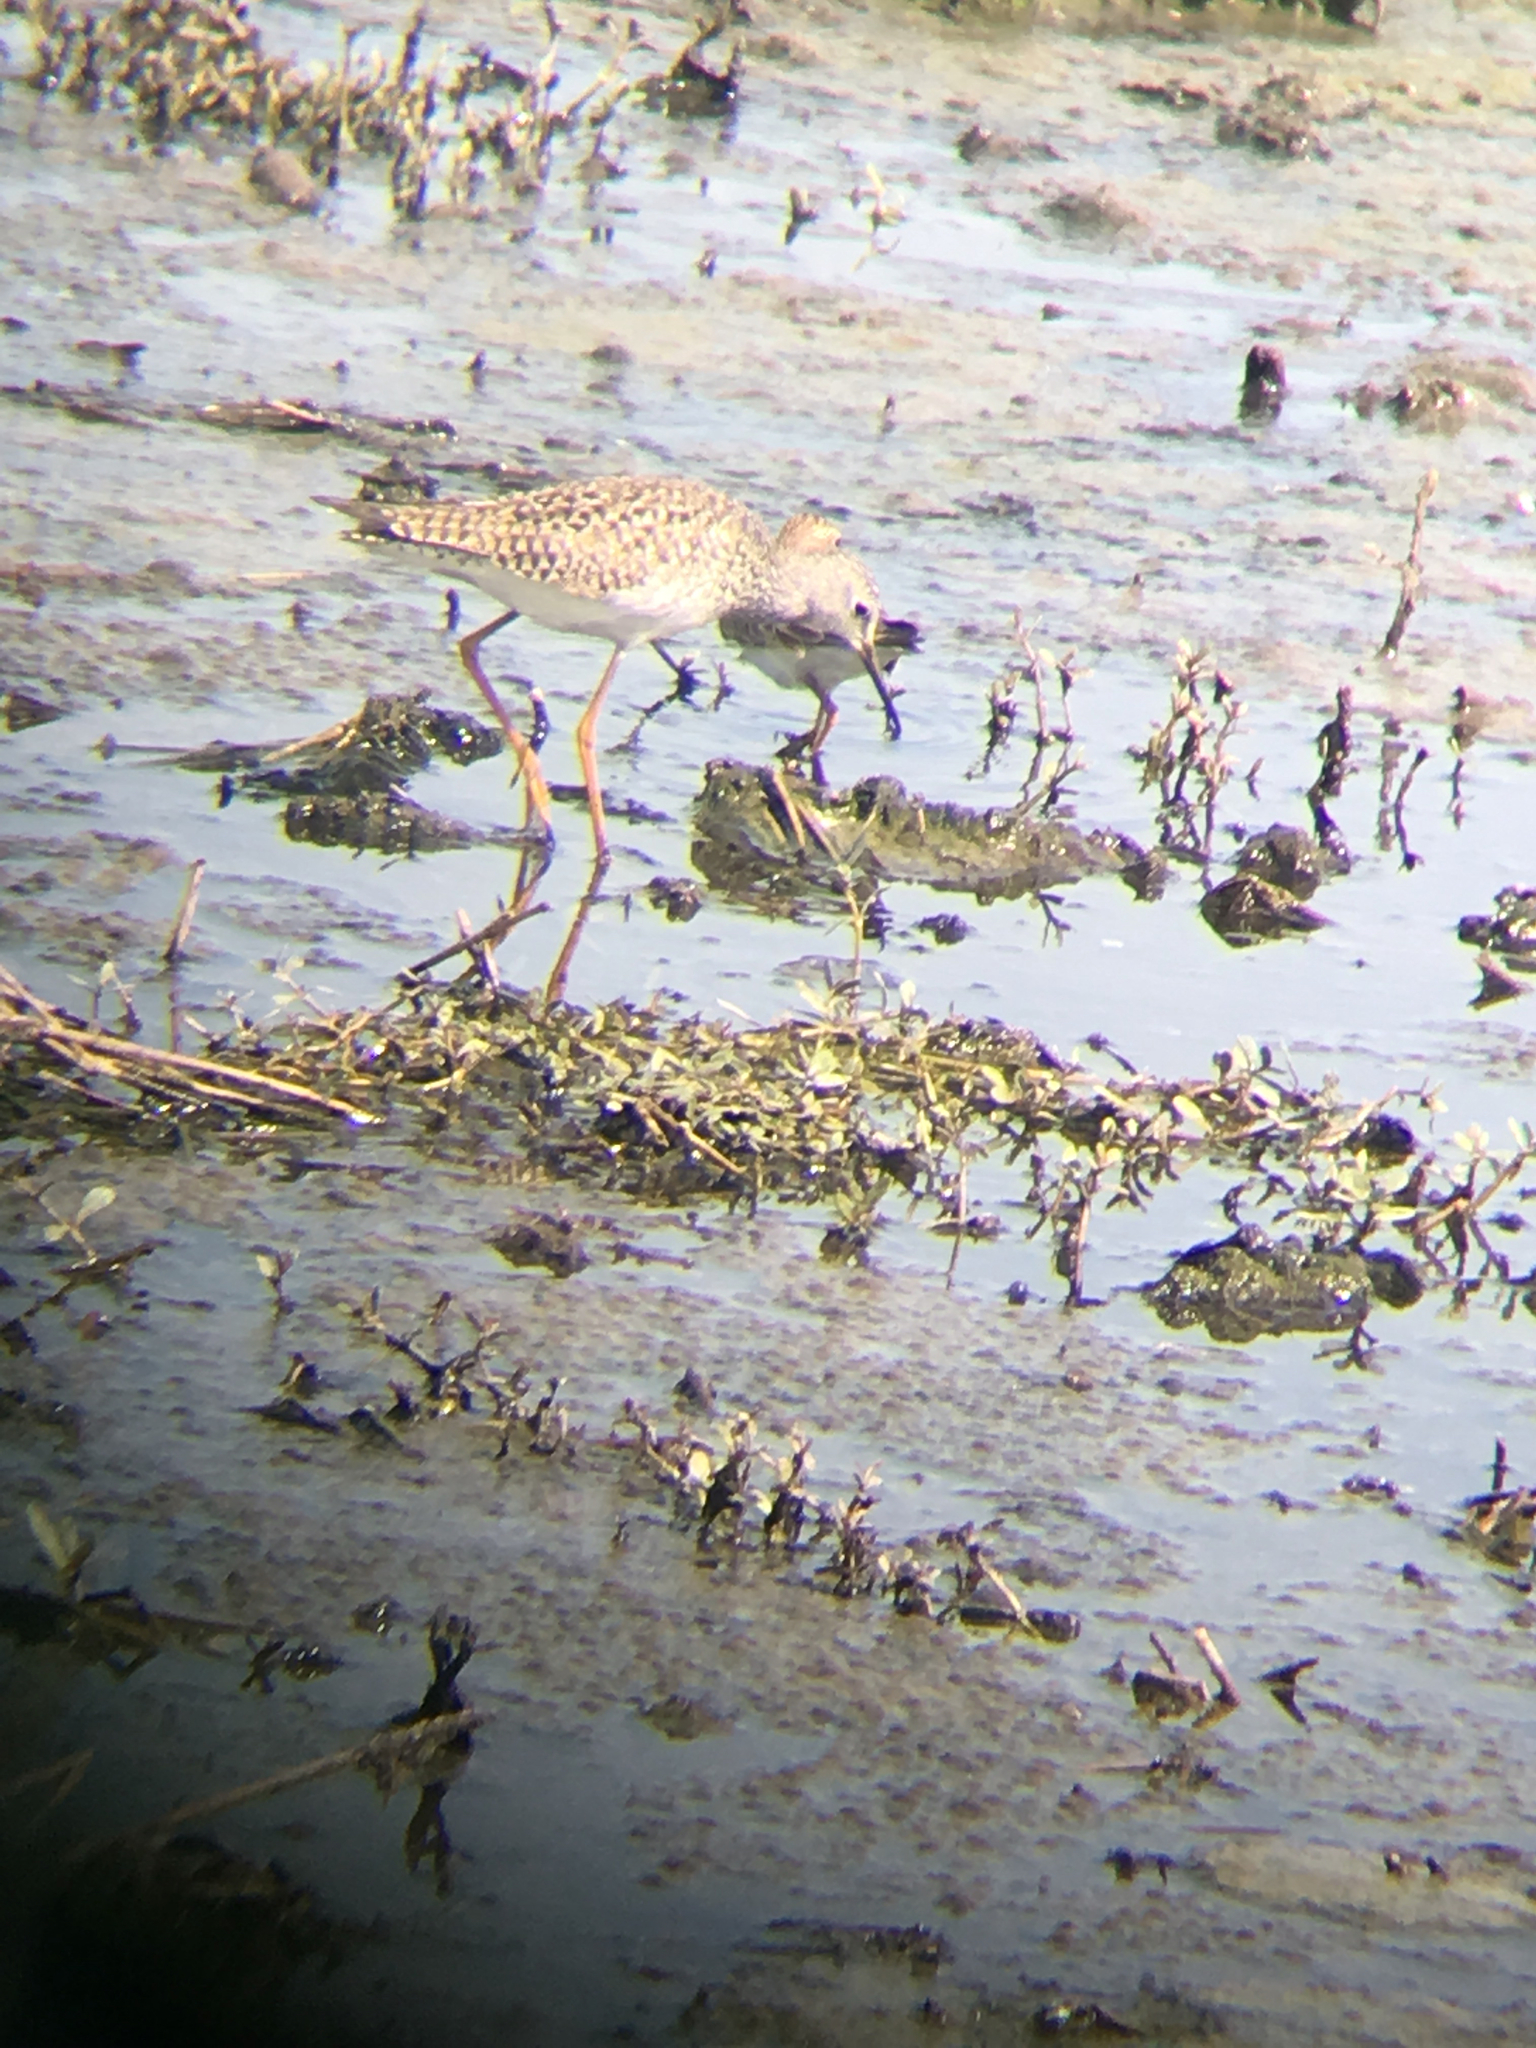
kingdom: Animalia
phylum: Chordata
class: Aves
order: Charadriiformes
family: Scolopacidae
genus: Tringa
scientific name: Tringa flavipes
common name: Lesser yellowlegs
